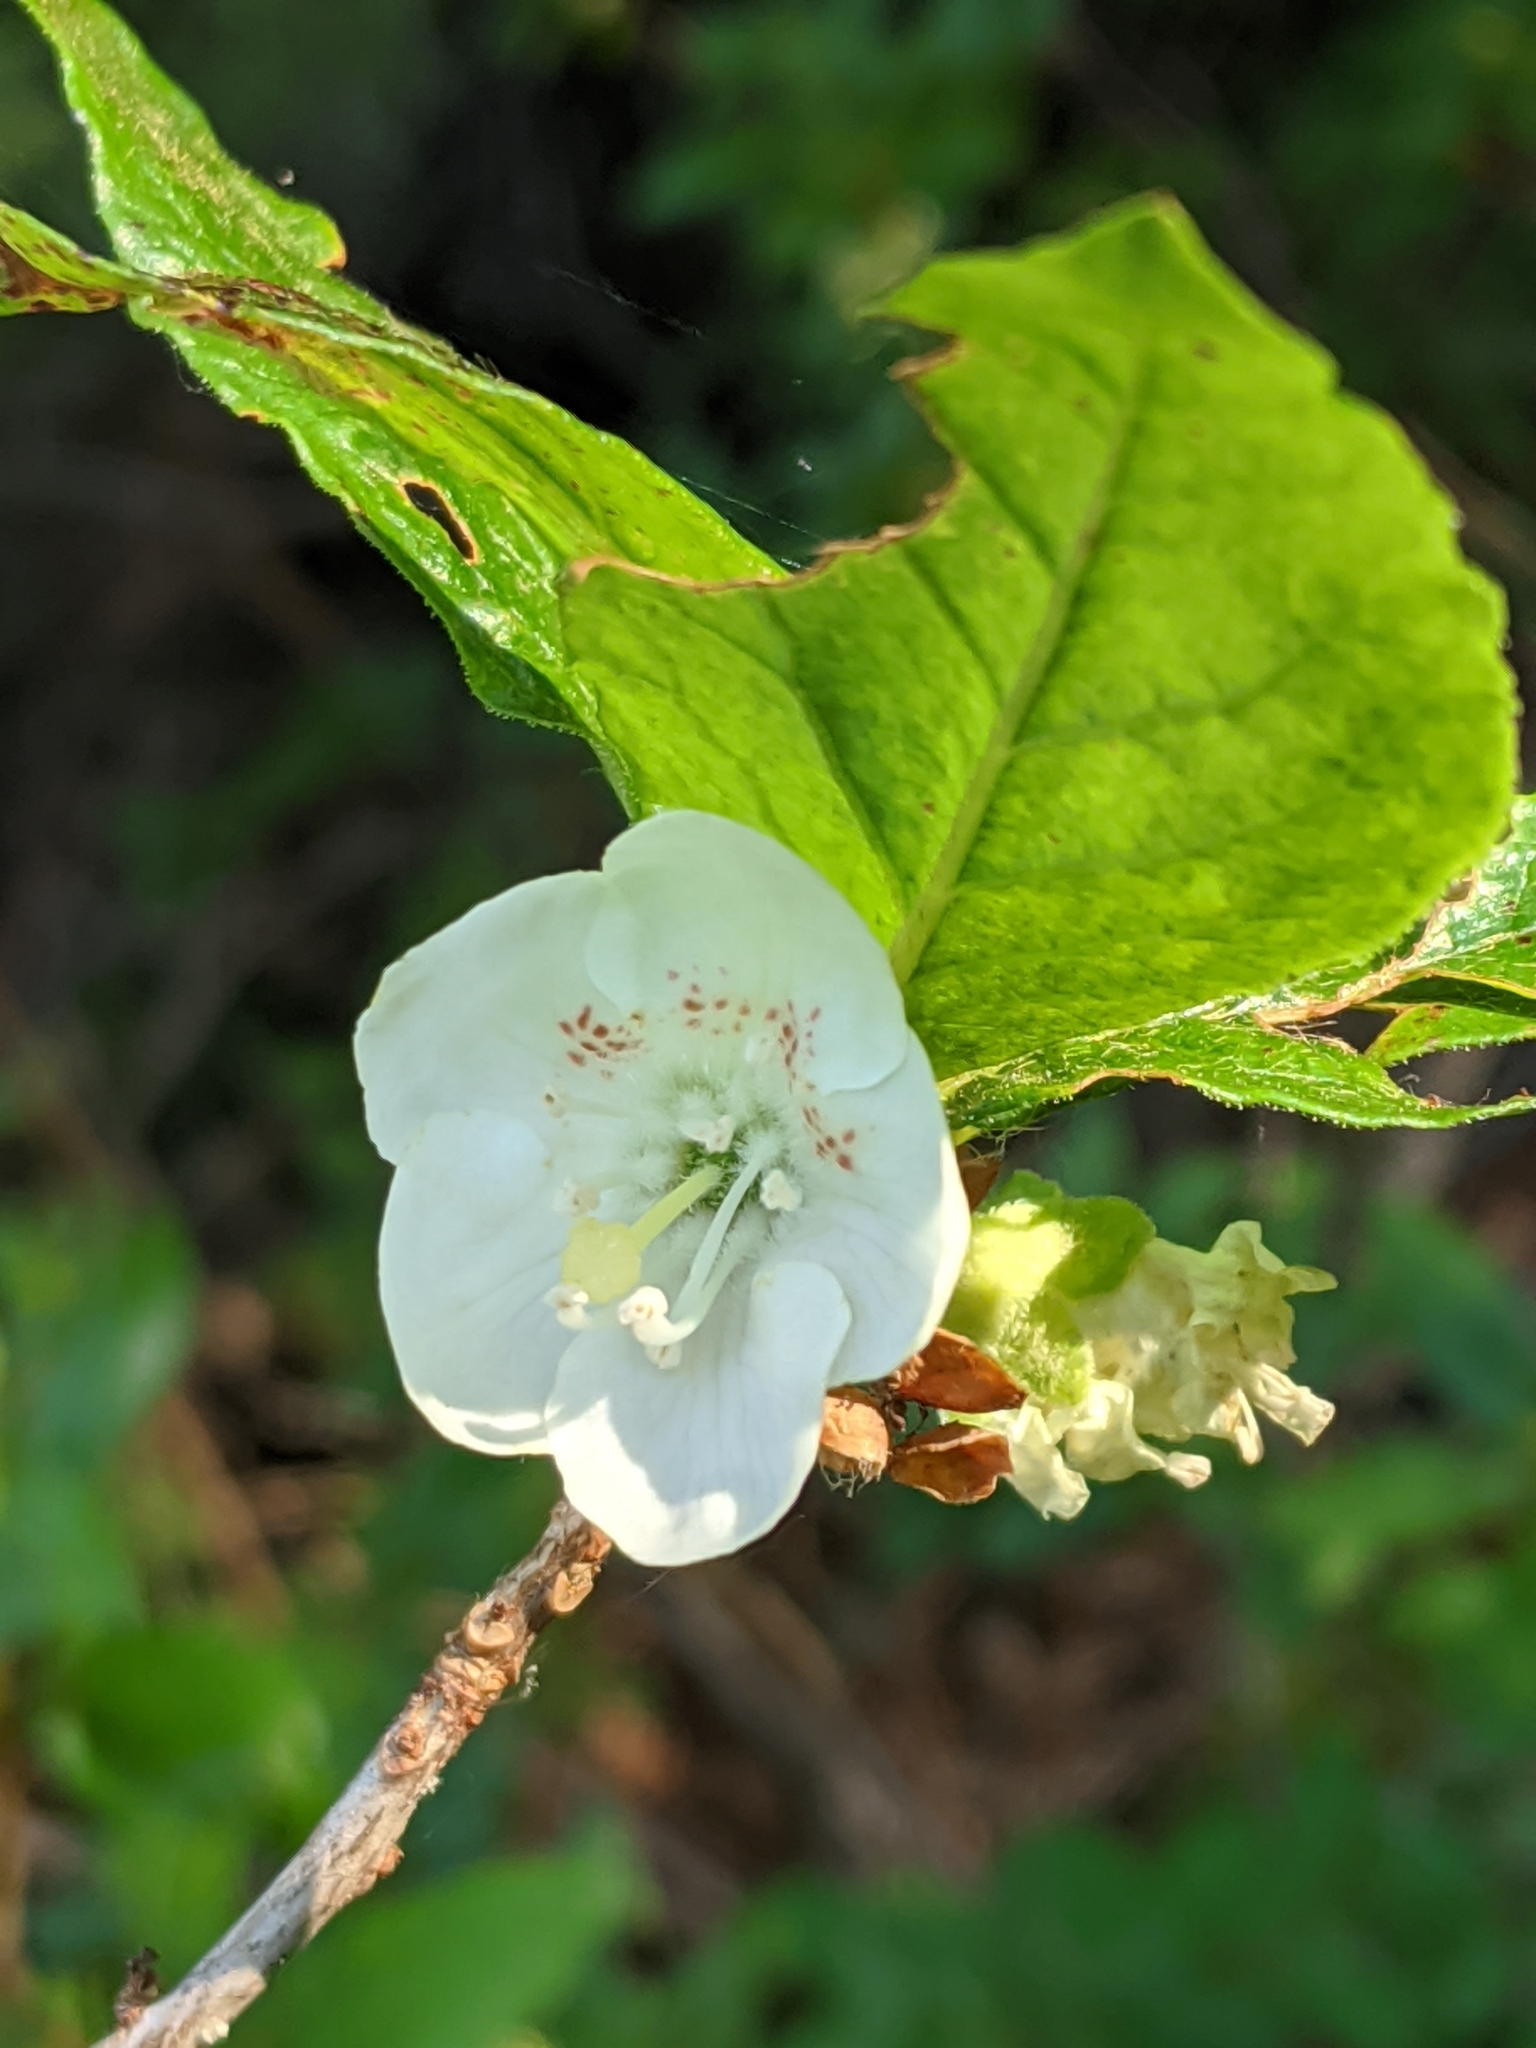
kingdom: Plantae
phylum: Tracheophyta
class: Magnoliopsida
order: Ericales
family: Ericaceae
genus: Rhododendron
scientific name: Rhododendron albiflorum
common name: White rhododendron
